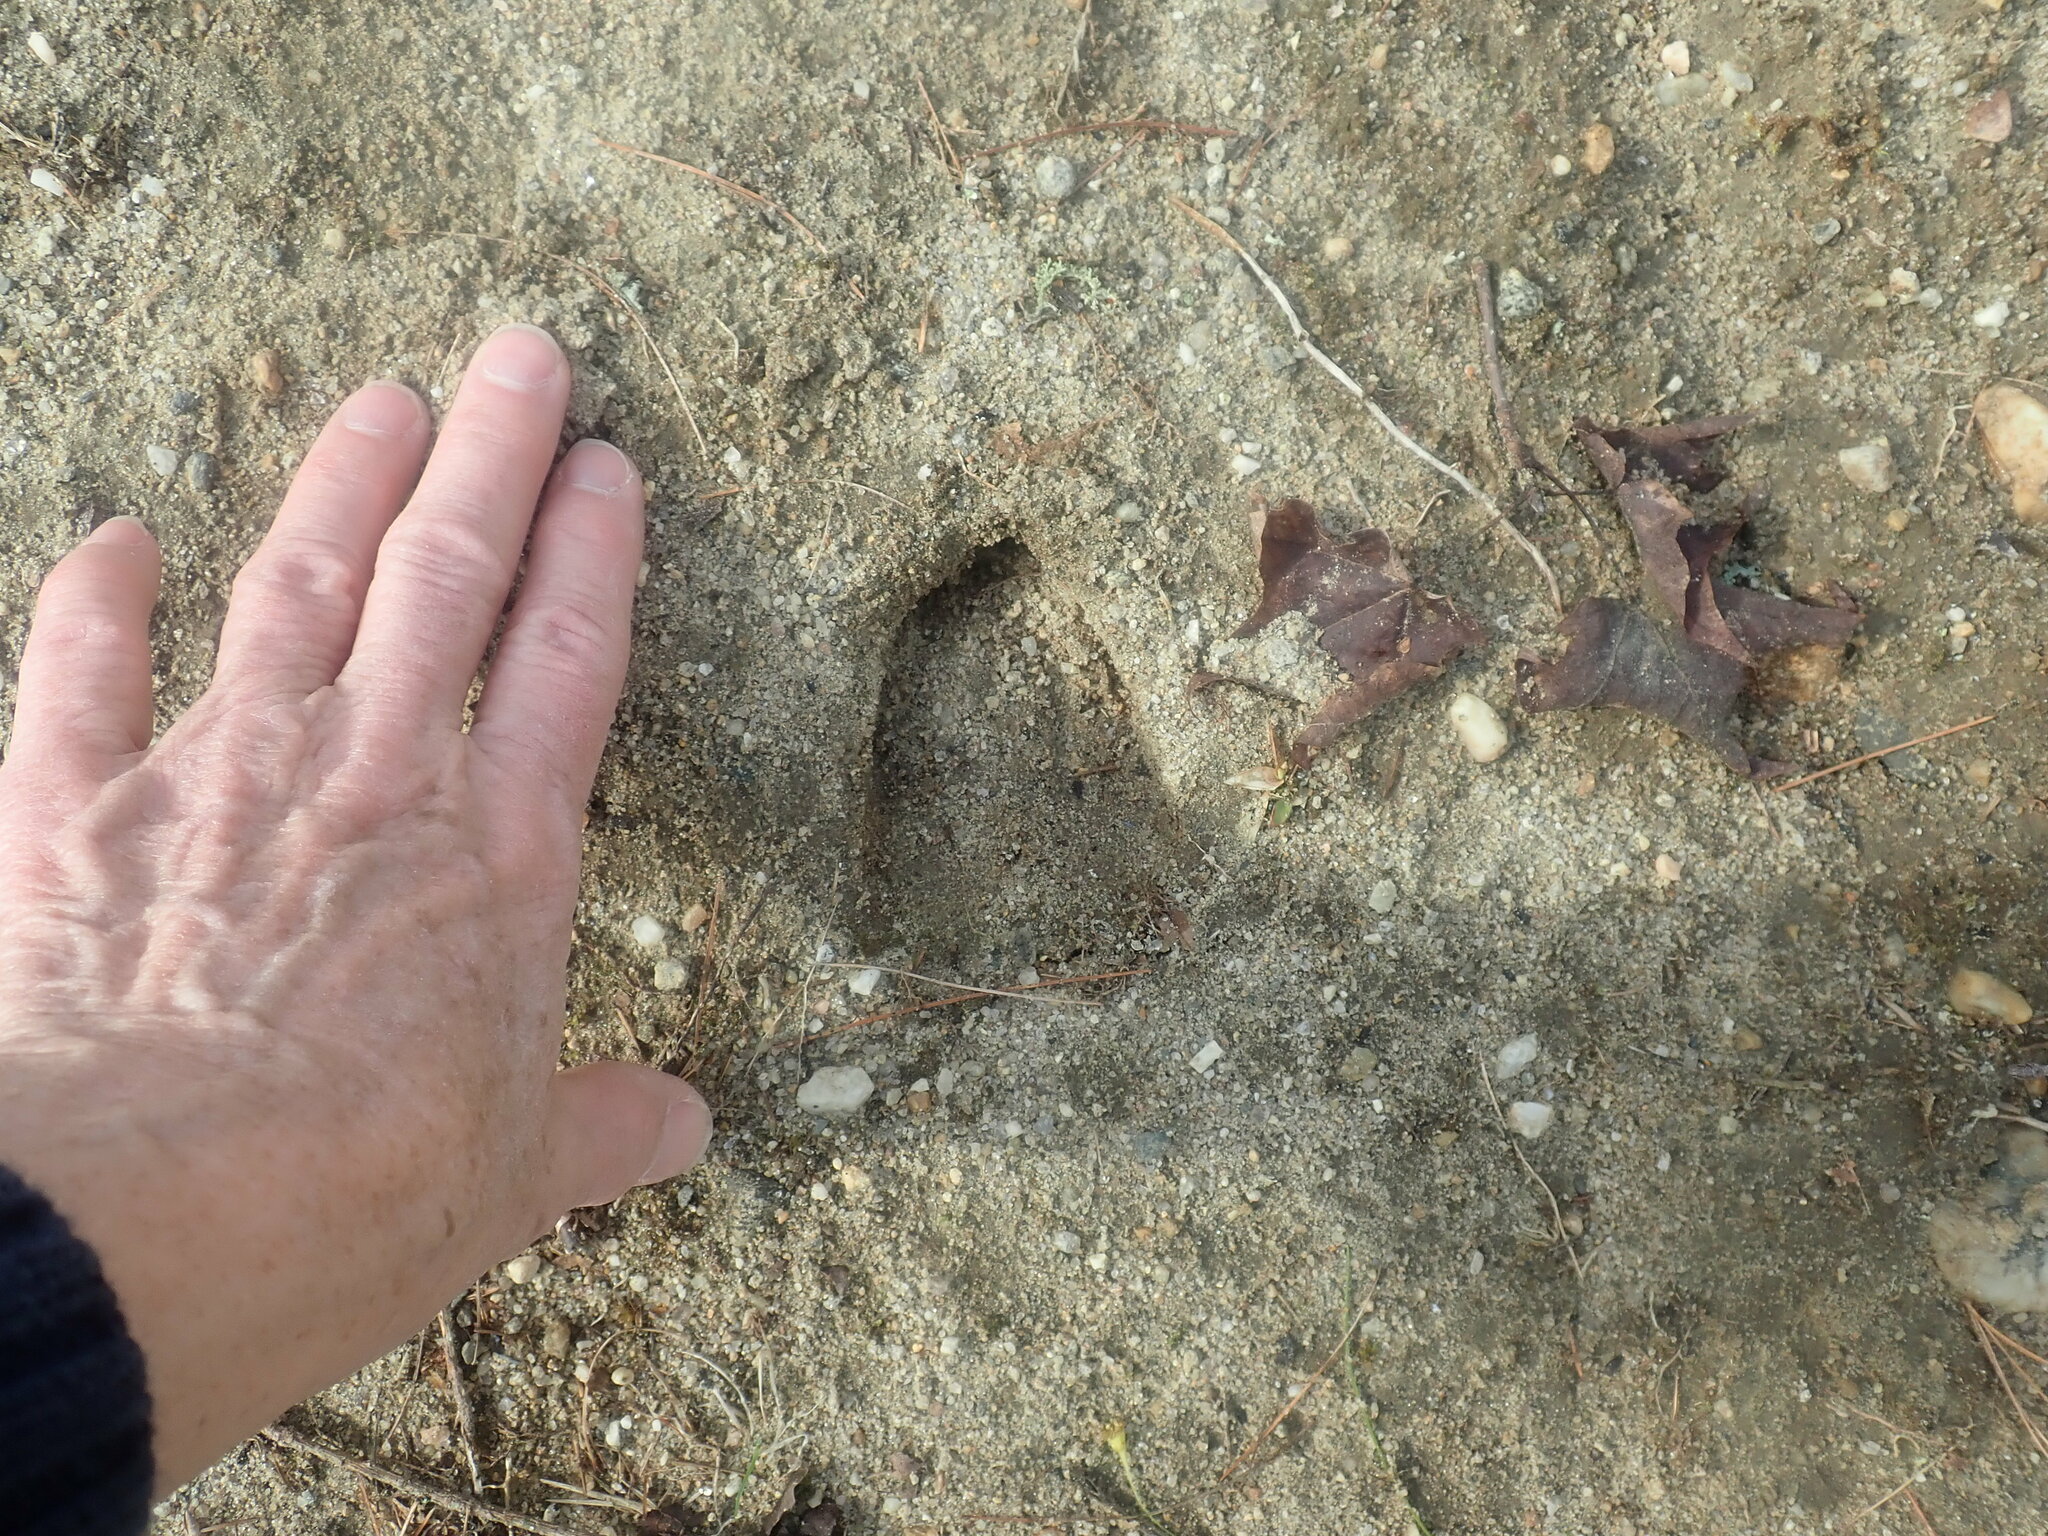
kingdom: Animalia
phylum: Chordata
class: Mammalia
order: Artiodactyla
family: Cervidae
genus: Odocoileus
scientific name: Odocoileus virginianus
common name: White-tailed deer
